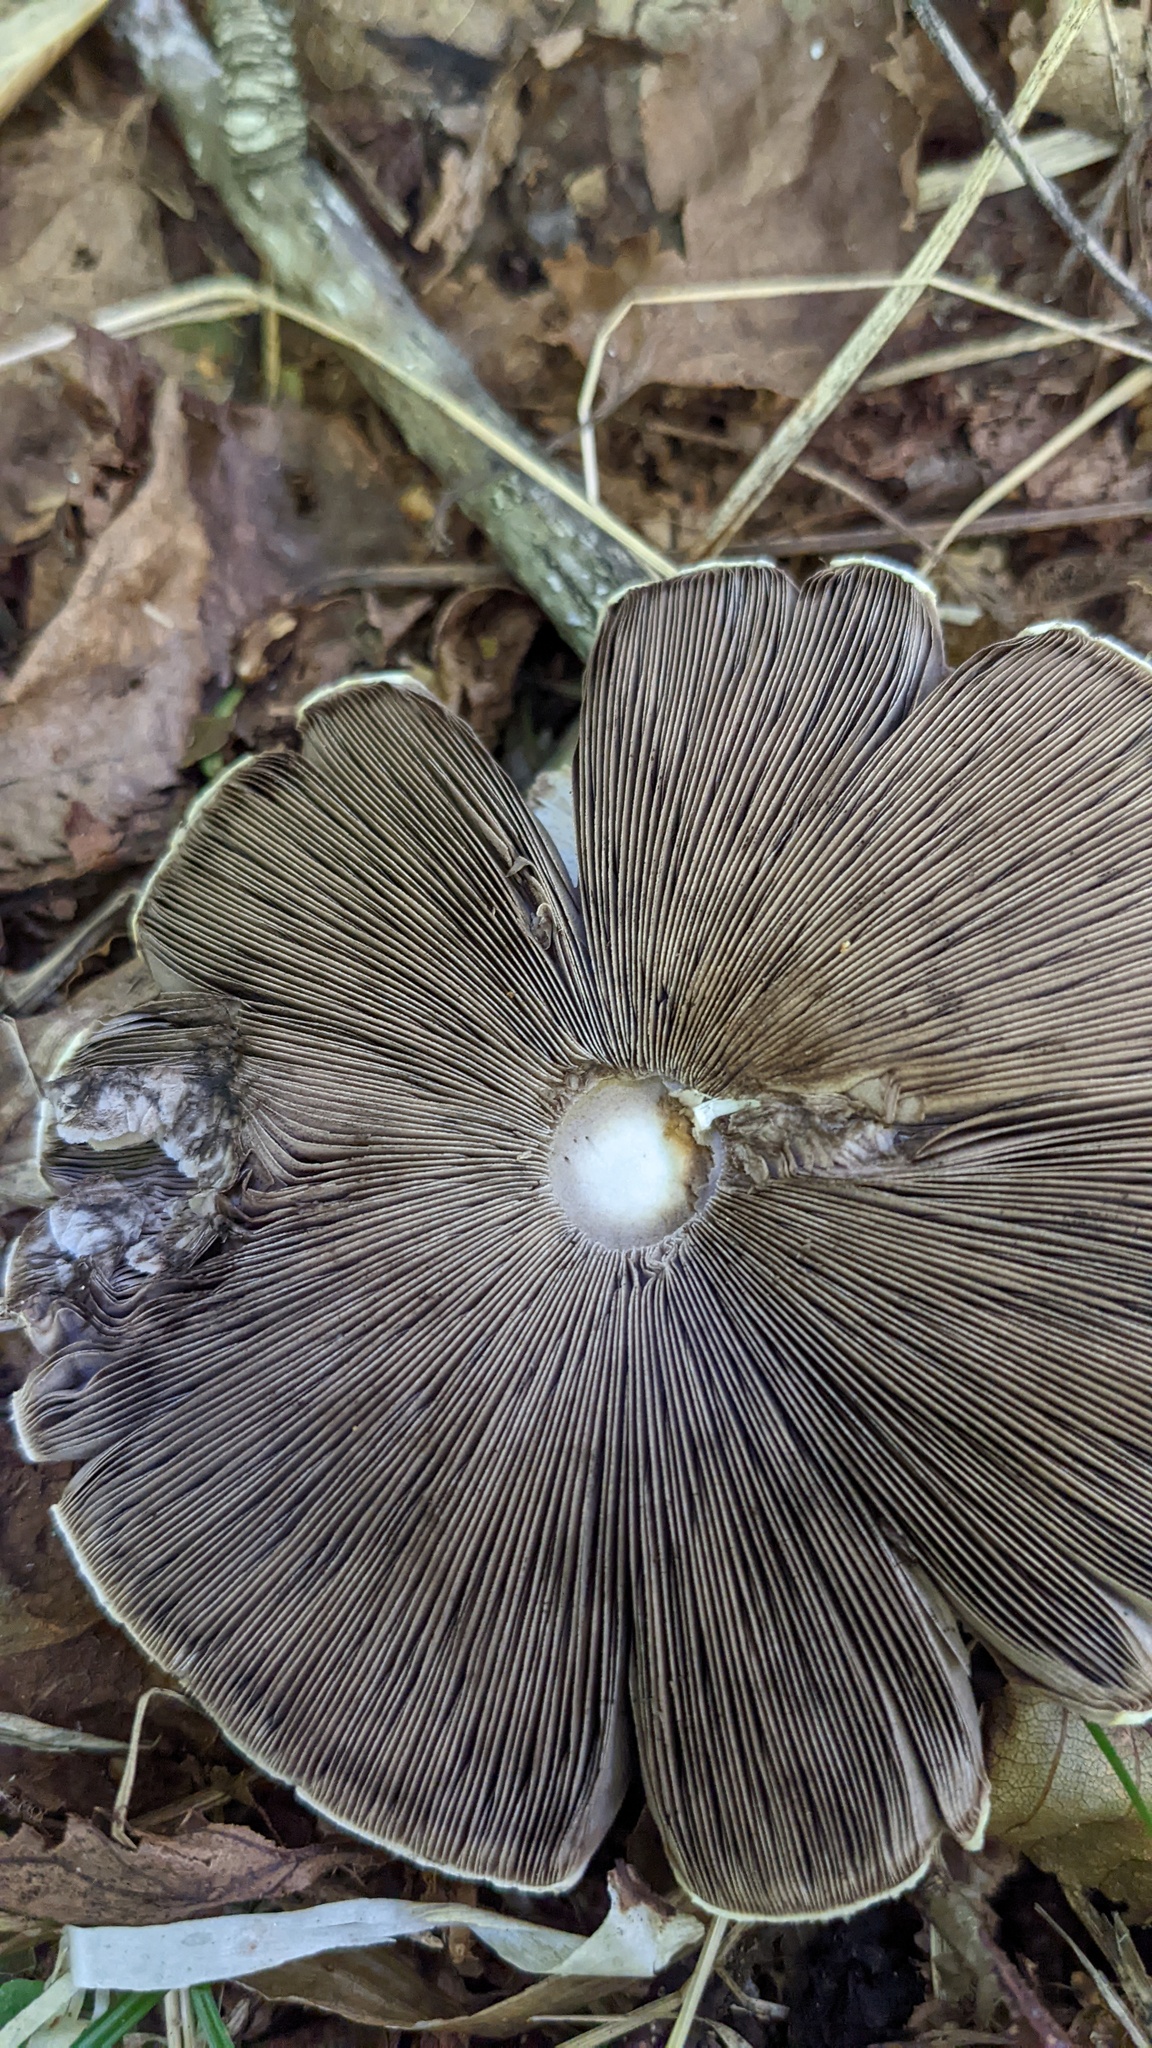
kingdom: Fungi
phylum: Basidiomycota
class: Agaricomycetes
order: Agaricales
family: Agaricaceae
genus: Agaricus
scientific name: Agaricus abruptibulbus
